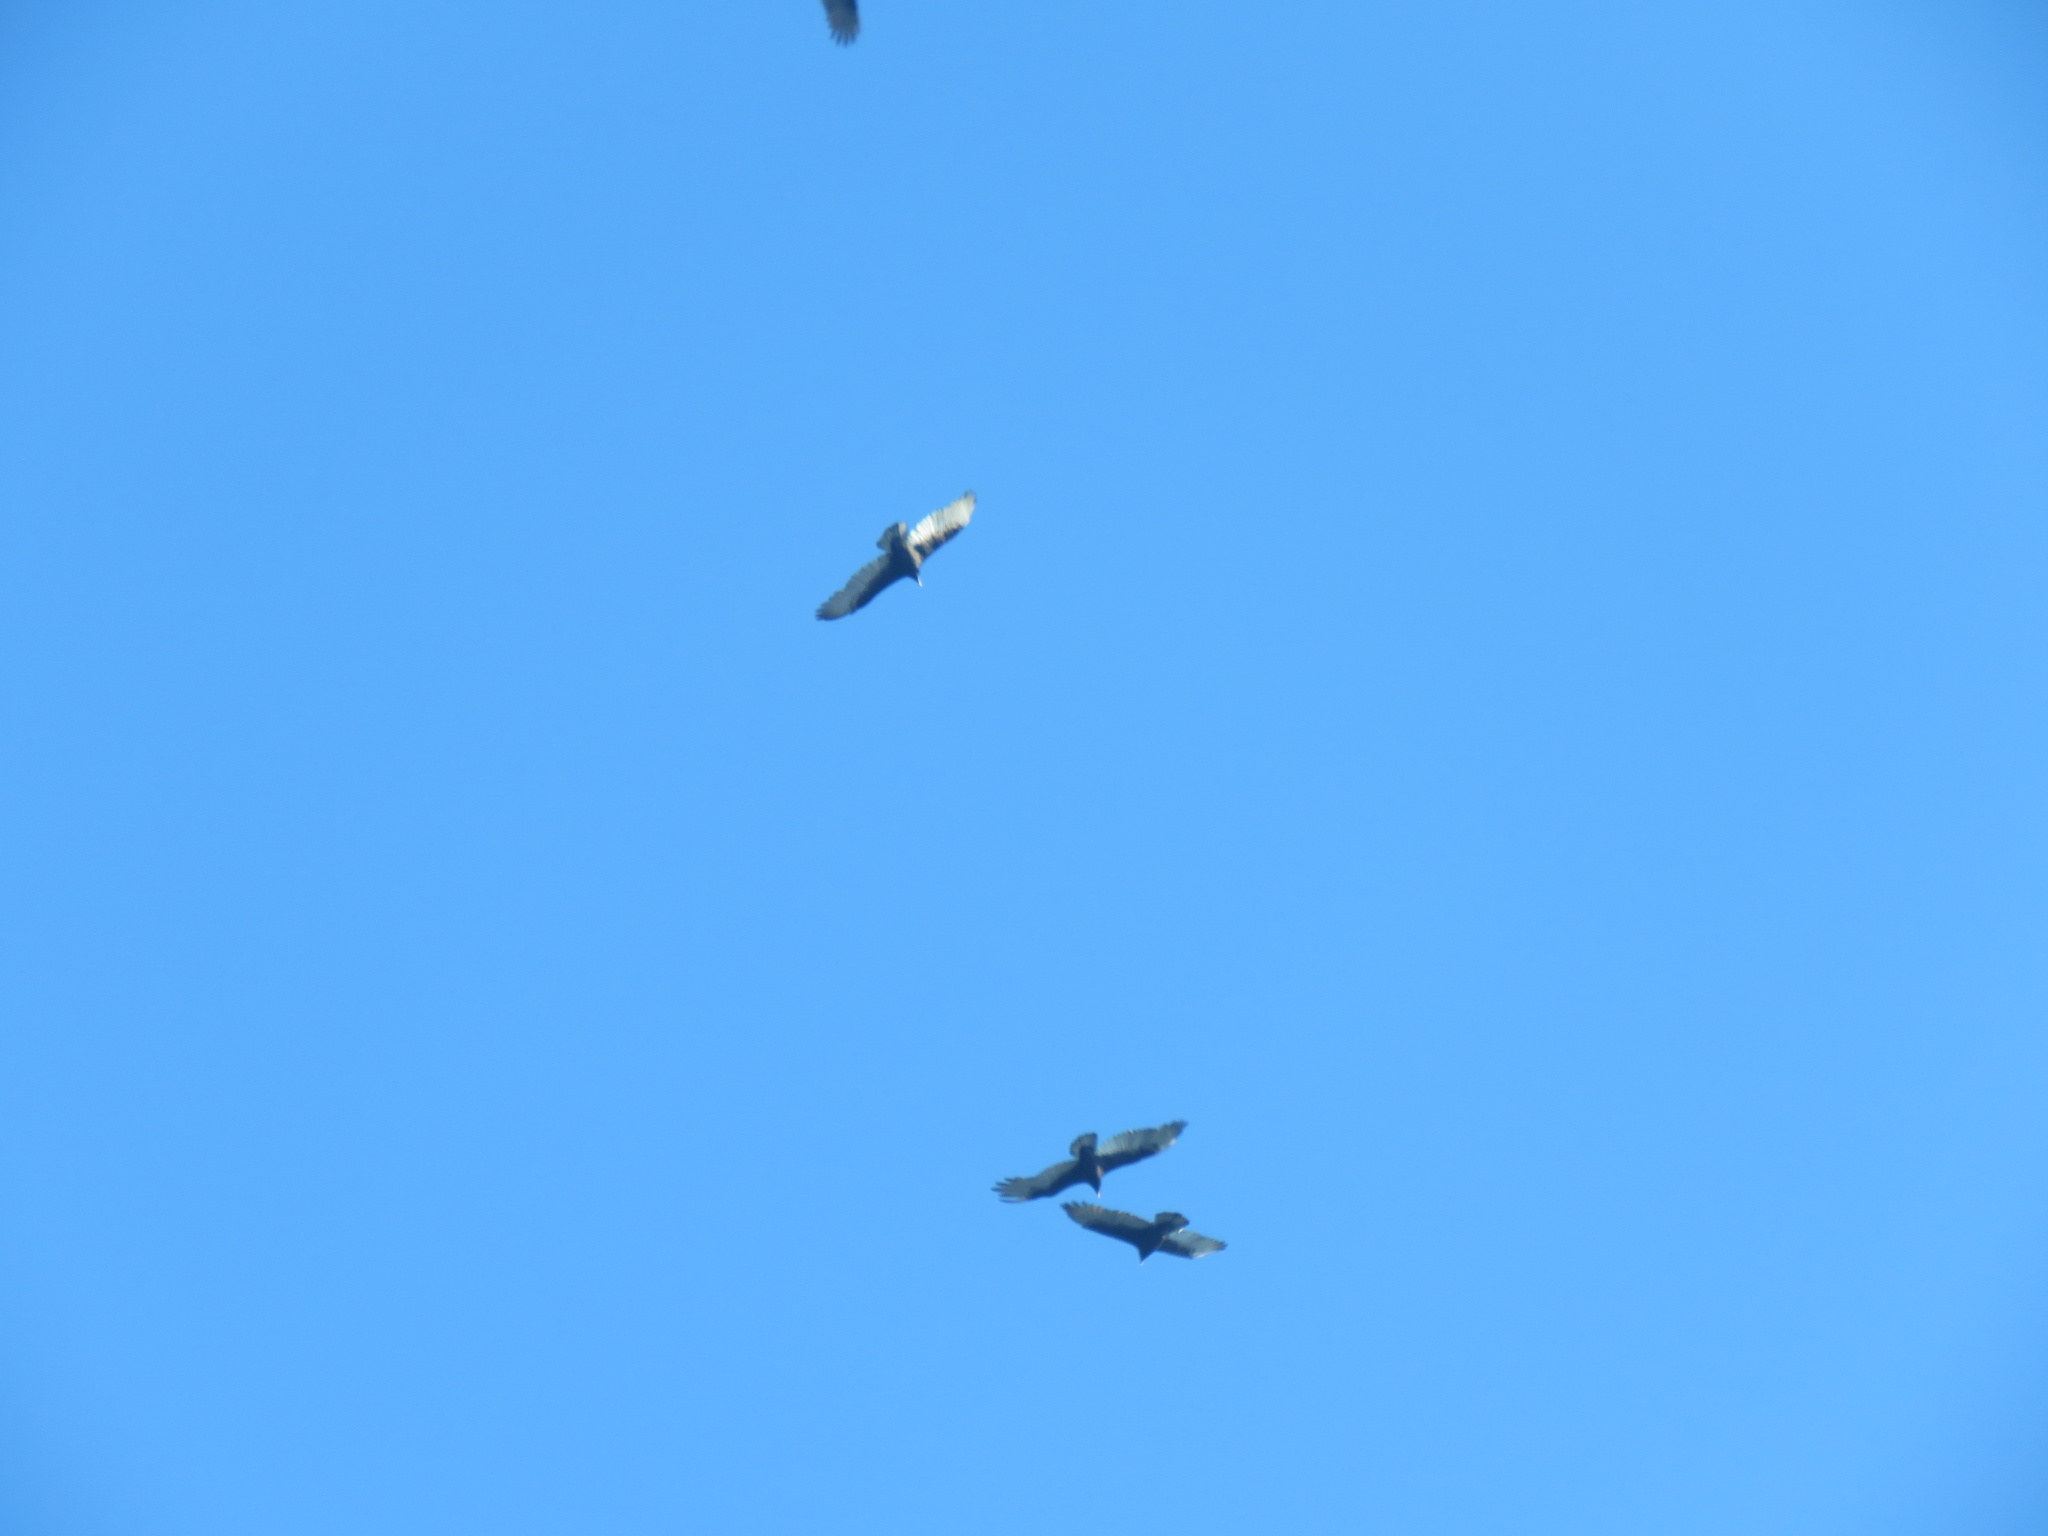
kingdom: Animalia
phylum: Chordata
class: Aves
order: Accipitriformes
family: Cathartidae
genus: Cathartes
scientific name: Cathartes aura
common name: Turkey vulture
